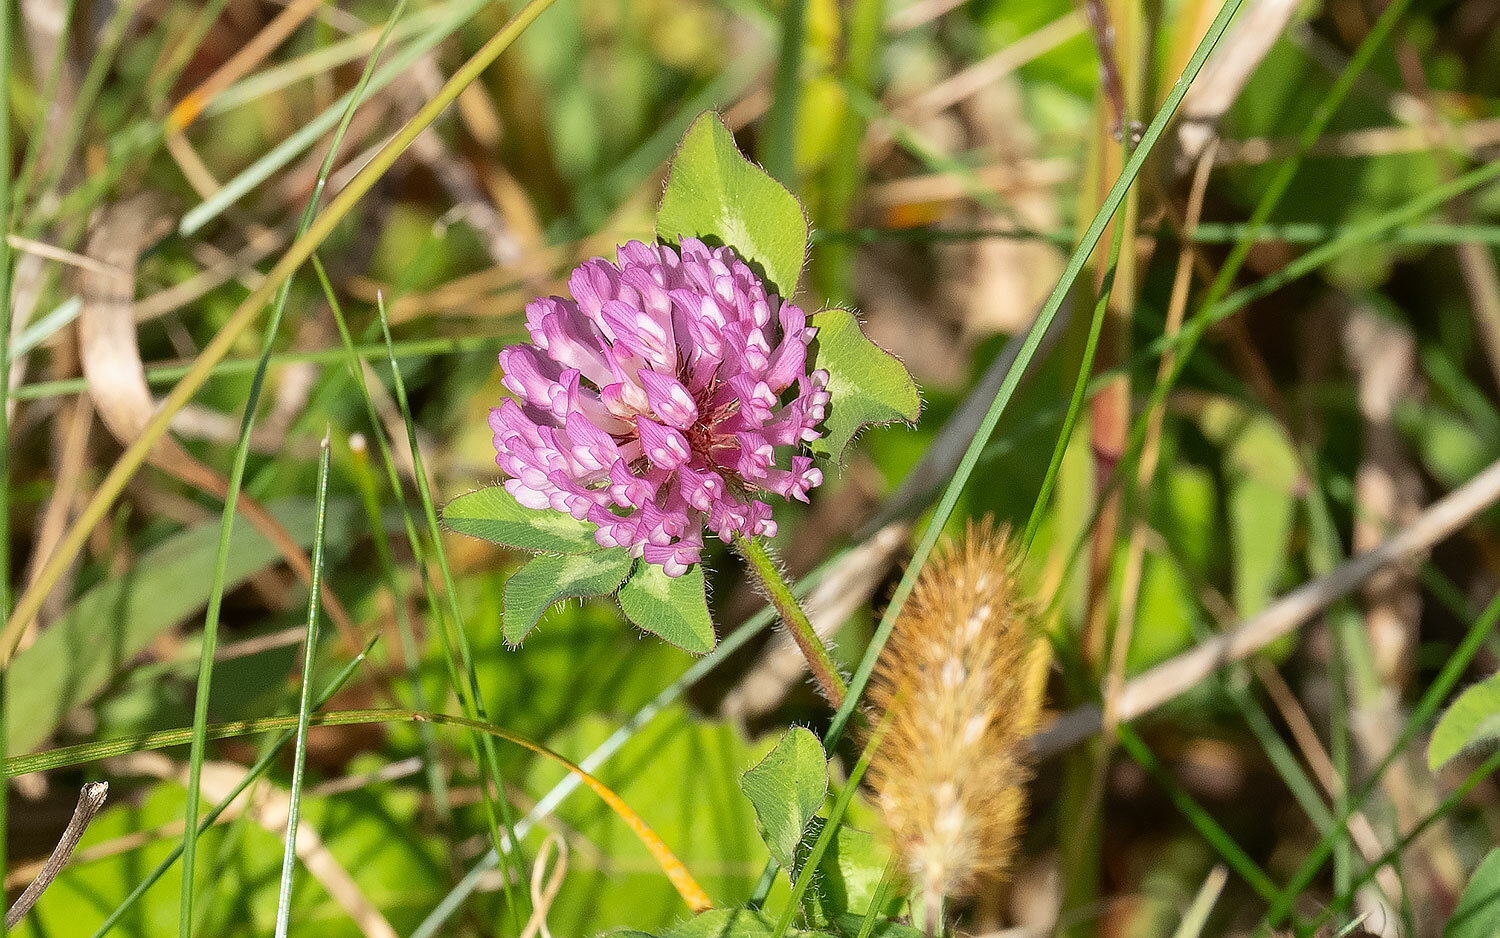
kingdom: Plantae
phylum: Tracheophyta
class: Magnoliopsida
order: Fabales
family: Fabaceae
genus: Trifolium
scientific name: Trifolium pratense
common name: Red clover
